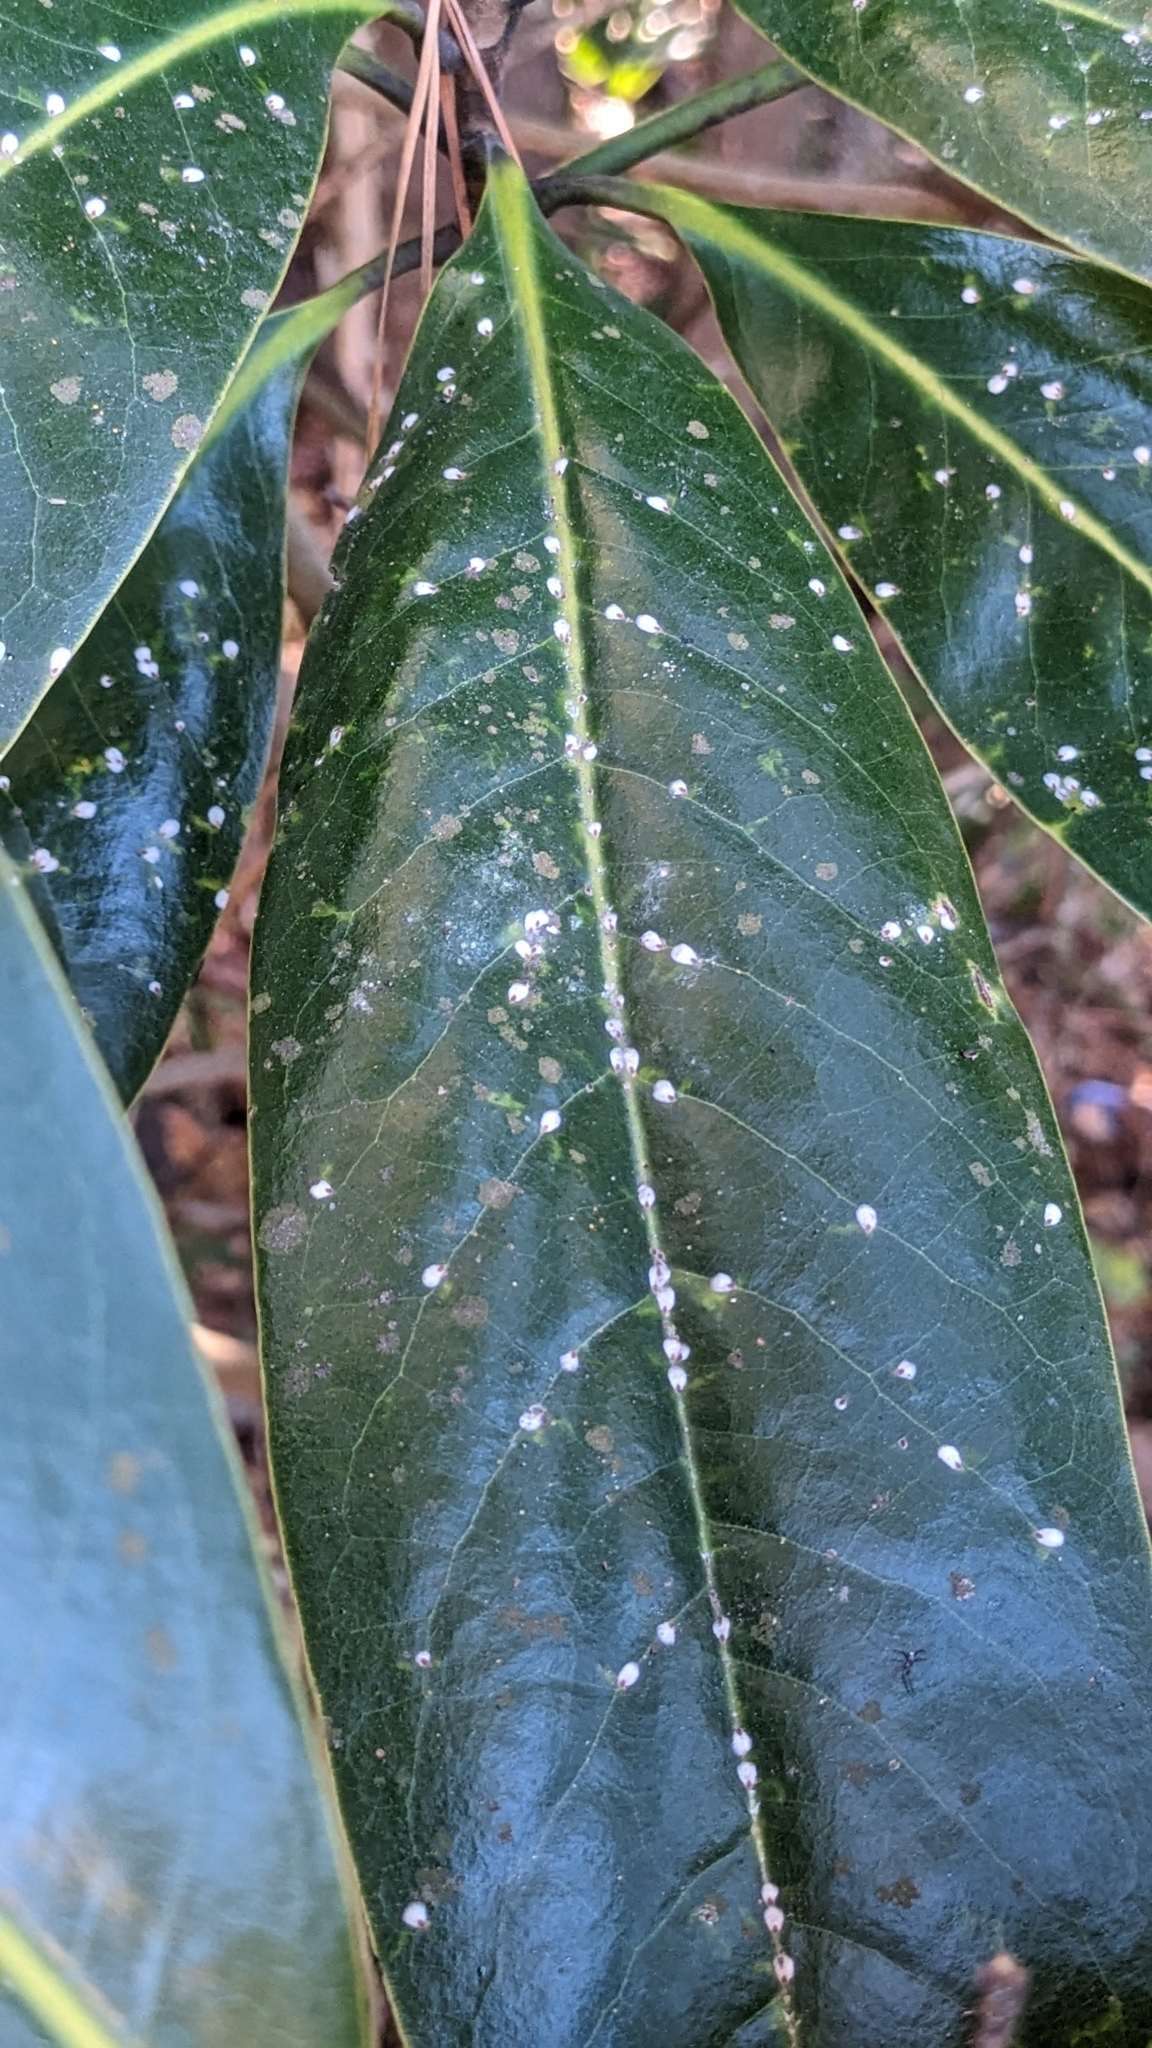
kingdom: Animalia
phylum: Arthropoda
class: Insecta
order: Hemiptera
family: Diaspididae
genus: Pseudaulacaspis
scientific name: Pseudaulacaspis cockerelli
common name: False oleander scale
